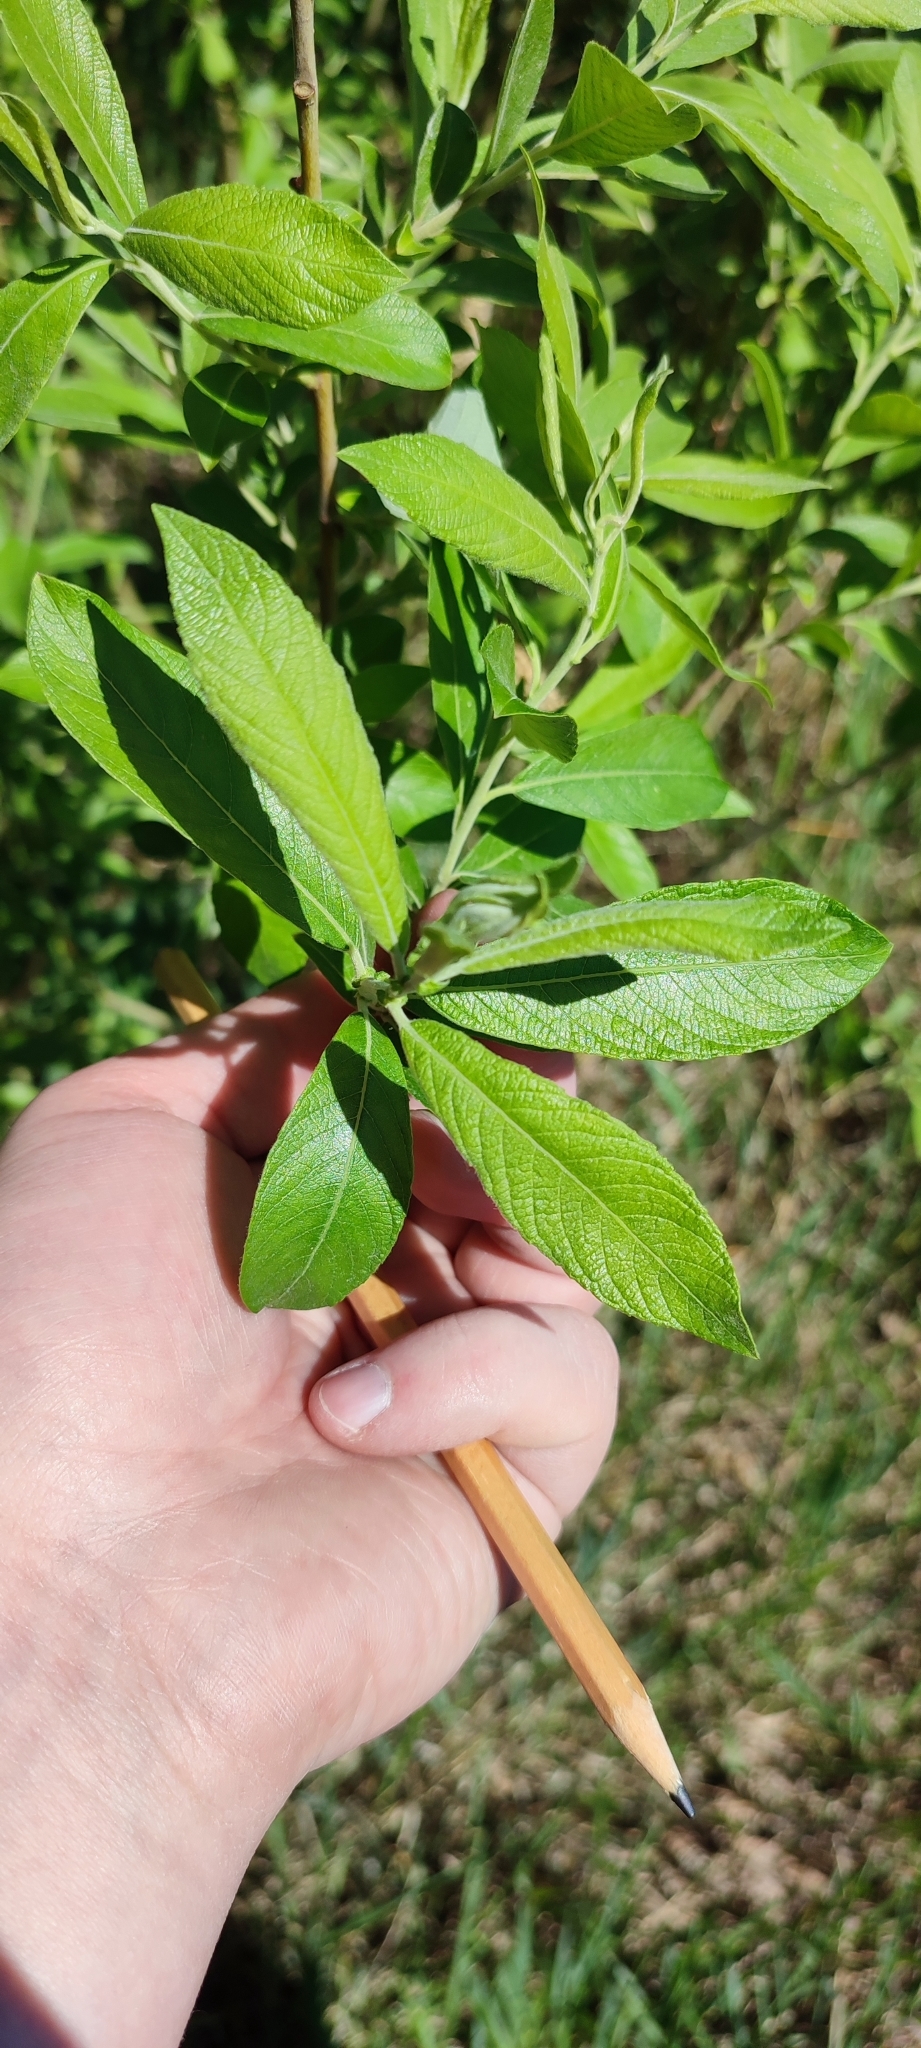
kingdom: Plantae
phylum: Tracheophyta
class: Magnoliopsida
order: Malpighiales
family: Salicaceae
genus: Salix
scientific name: Salix cinerea
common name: Common sallow
